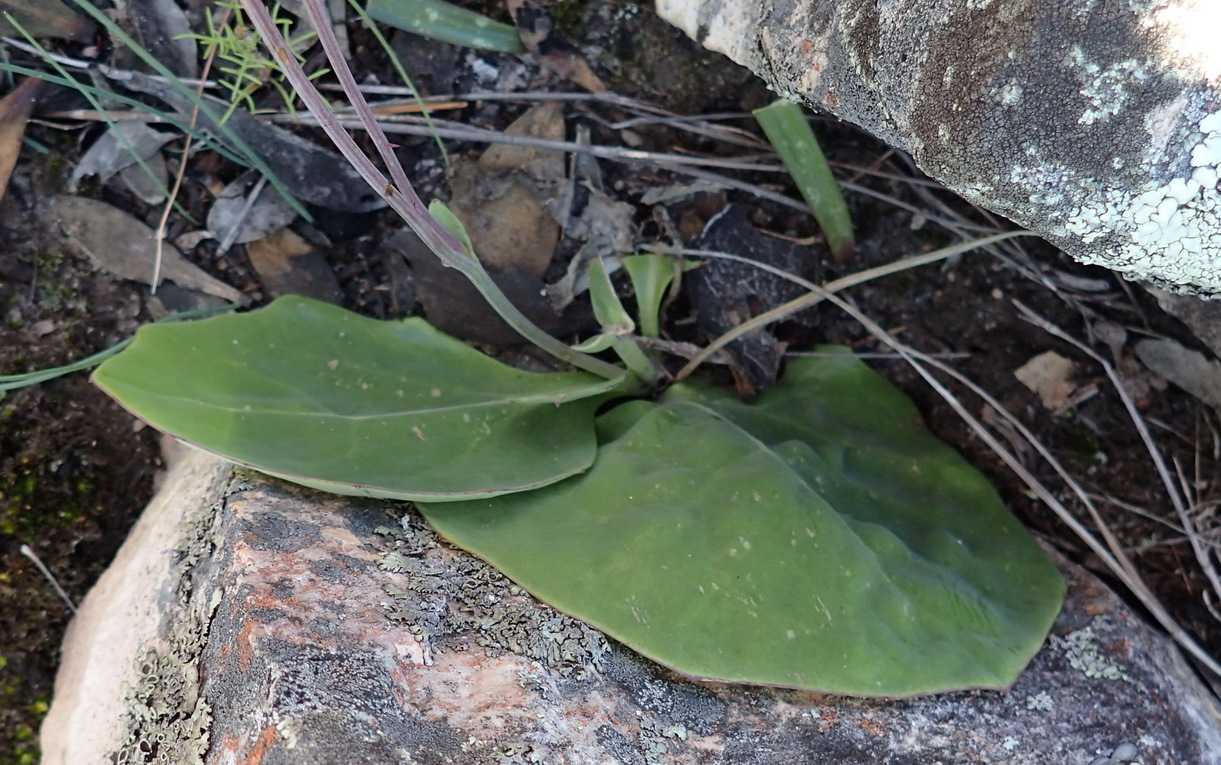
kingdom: Plantae
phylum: Tracheophyta
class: Magnoliopsida
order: Asterales
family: Asteraceae
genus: Othonna
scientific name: Othonna petiolaris
